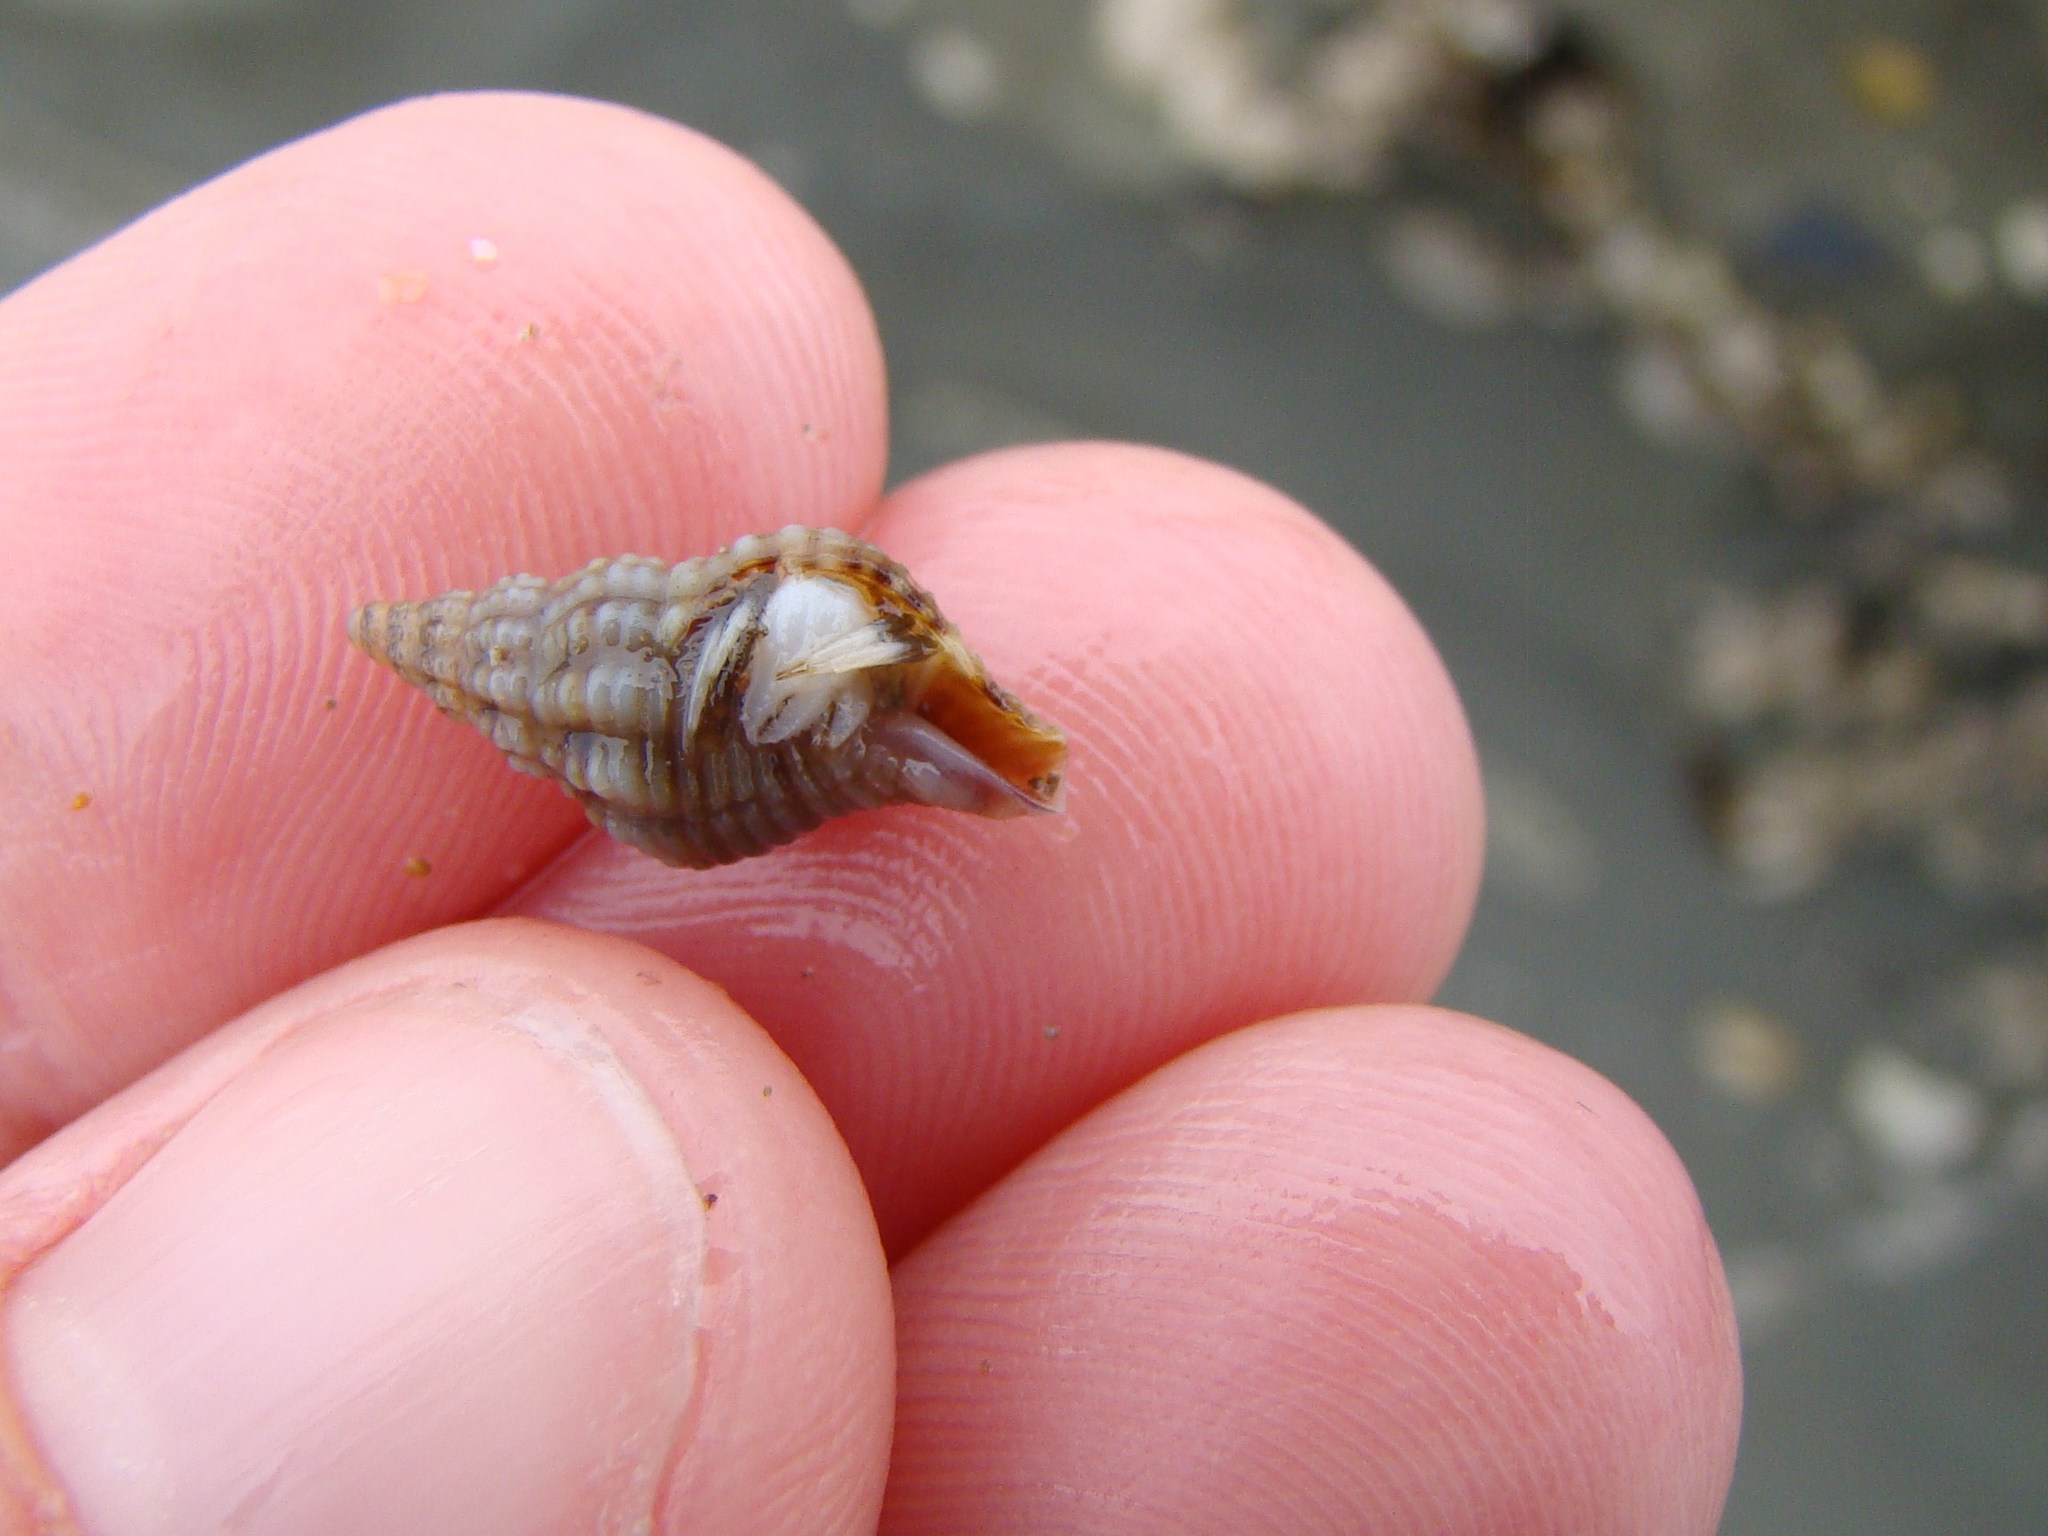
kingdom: Animalia
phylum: Mollusca
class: Gastropoda
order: Neogastropoda
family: Tudiclidae
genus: Buccinulum
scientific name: Buccinulum littorinoides
